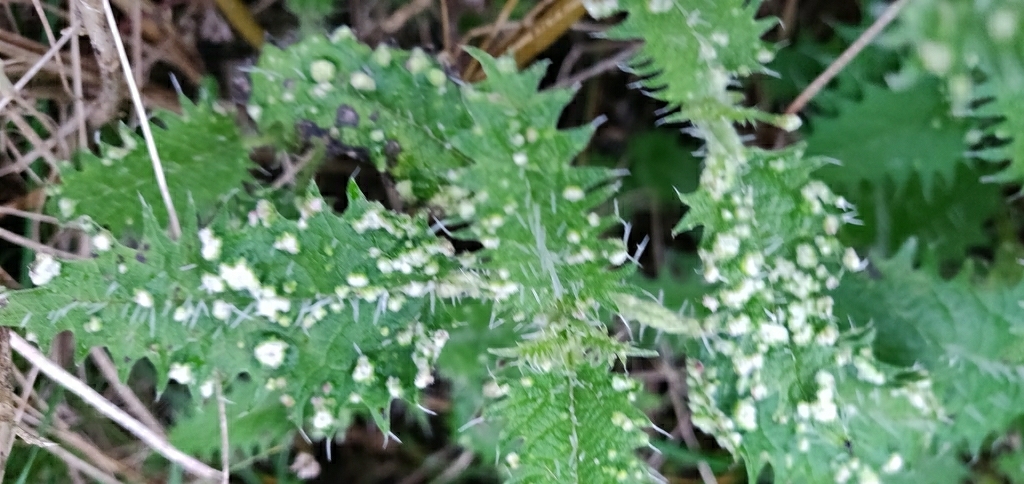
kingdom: Animalia
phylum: Arthropoda
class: Arachnida
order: Trombidiformes
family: Eriophyidae
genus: Vittacus
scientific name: Vittacus
